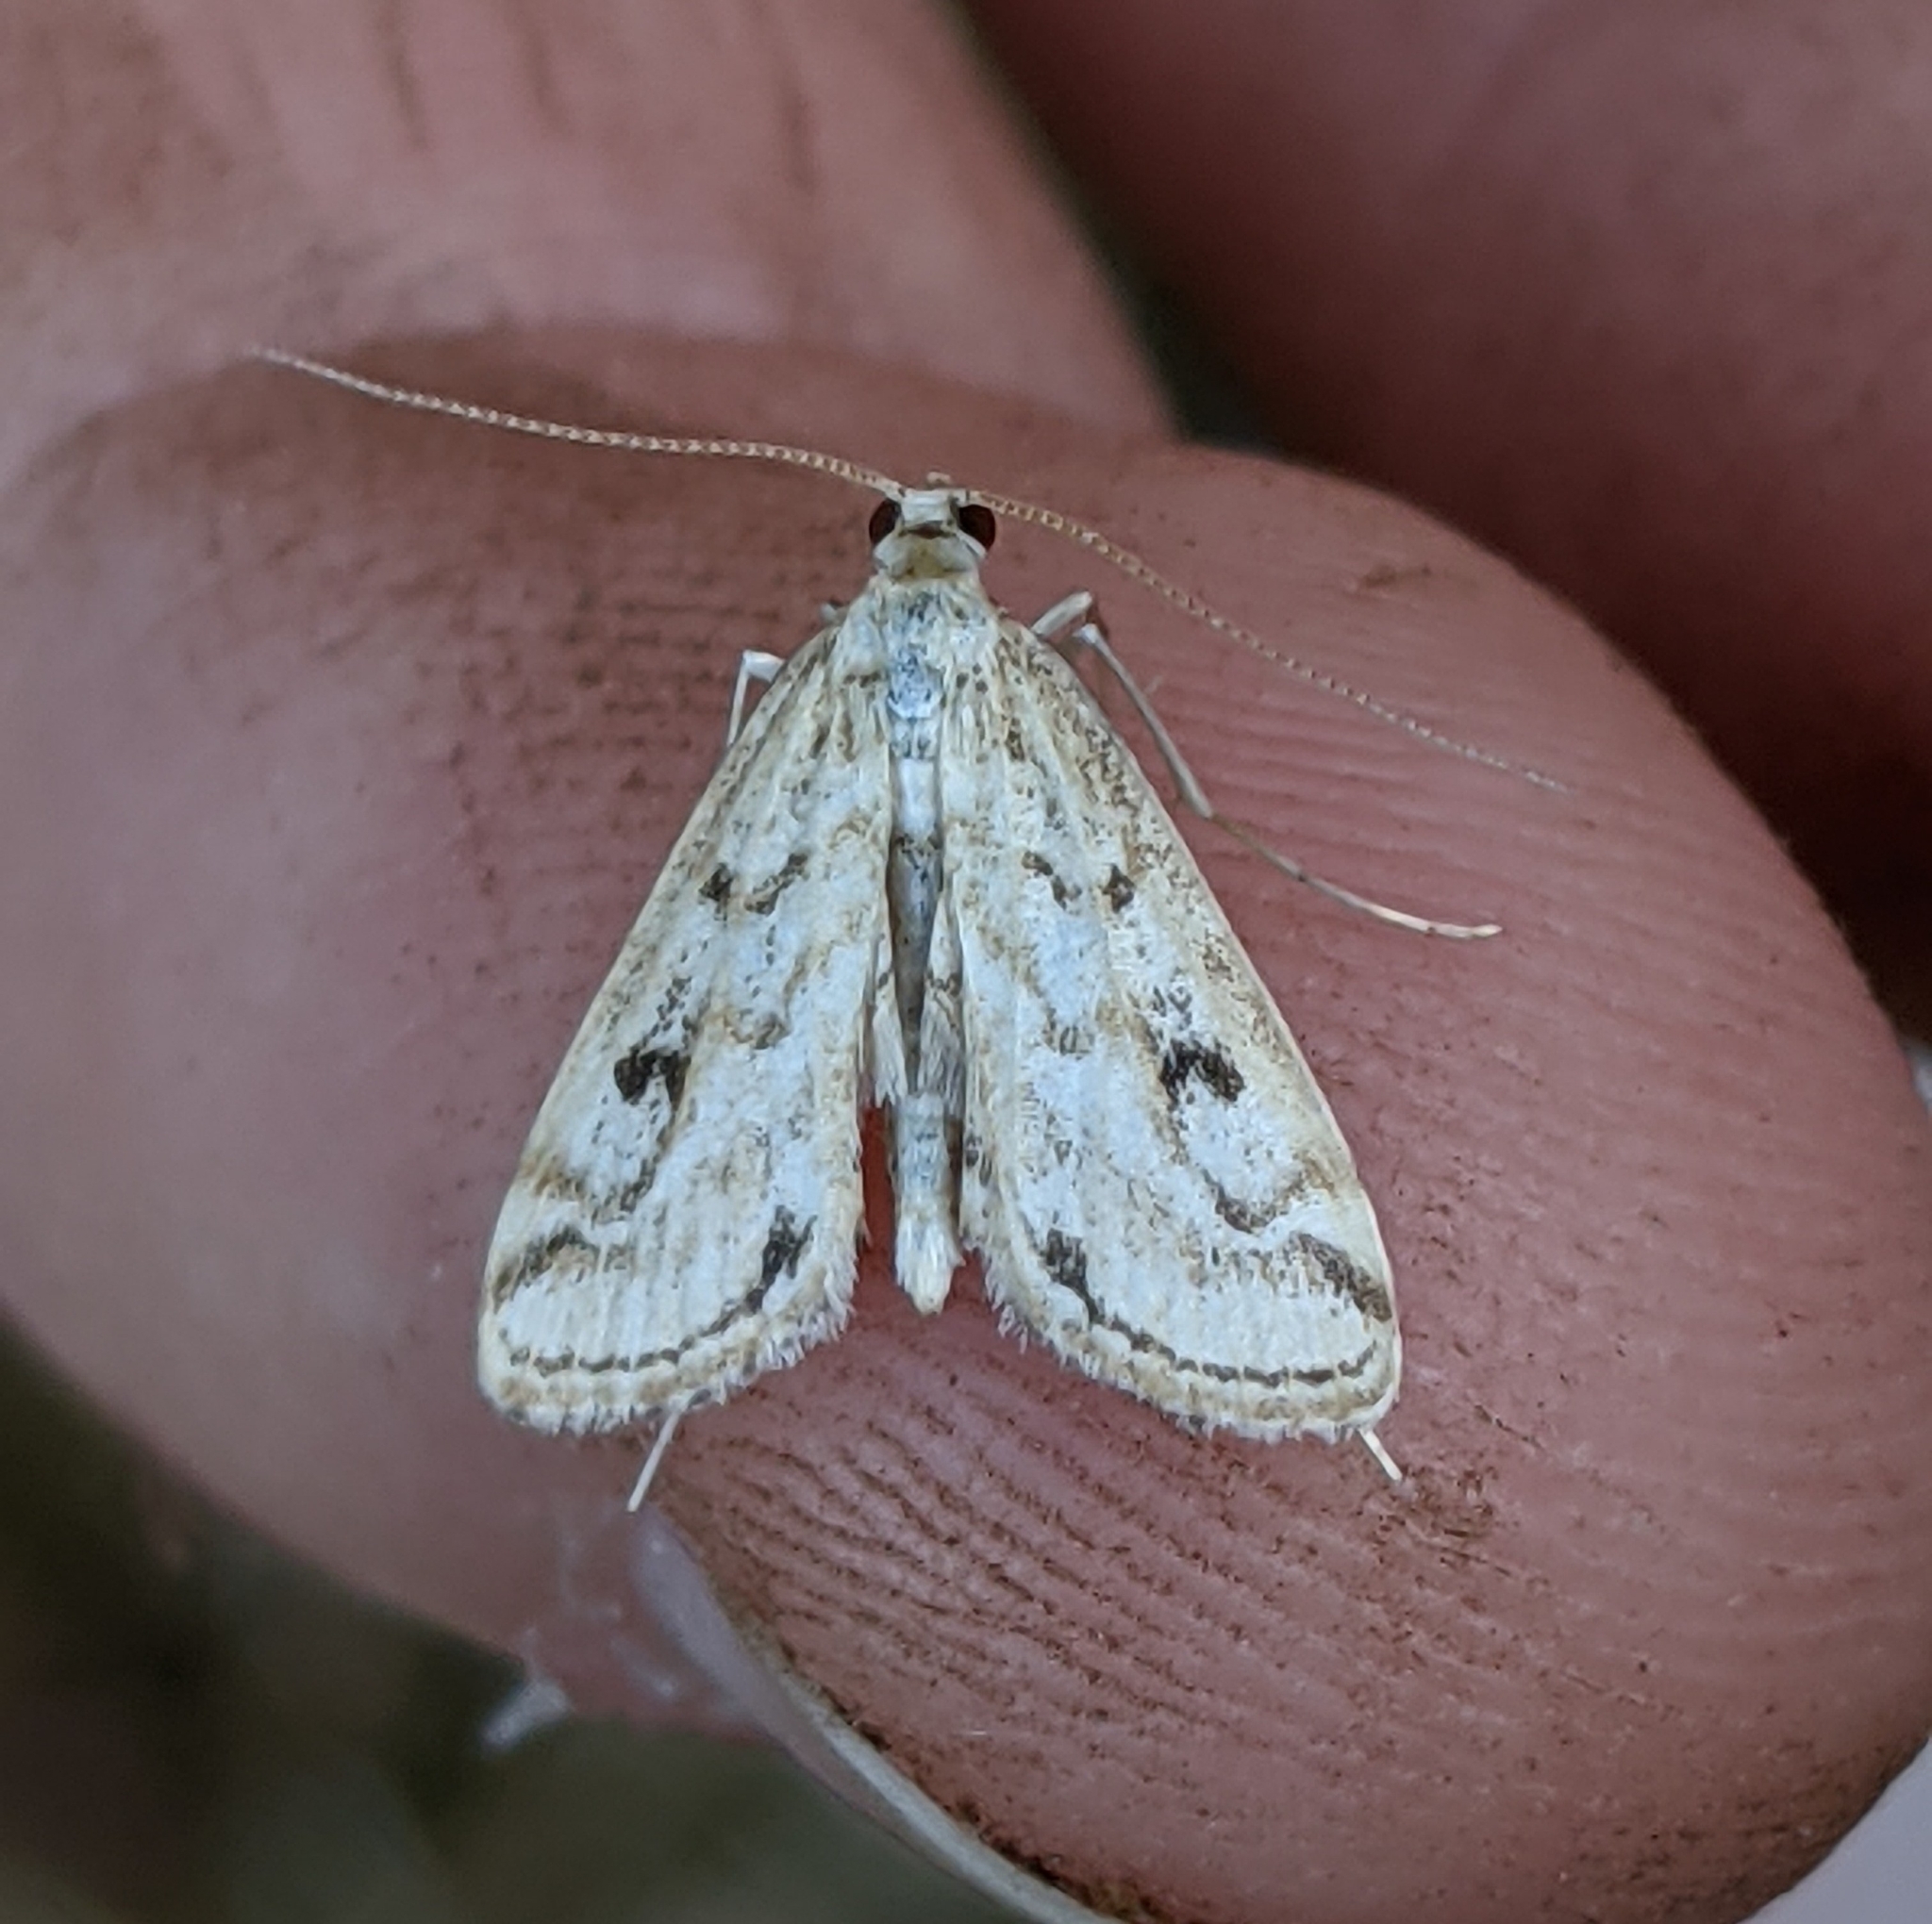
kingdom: Animalia
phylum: Arthropoda
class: Insecta
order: Lepidoptera
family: Crambidae
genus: Parapoynx
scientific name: Parapoynx allionealis
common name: Bladderwort casemaker
